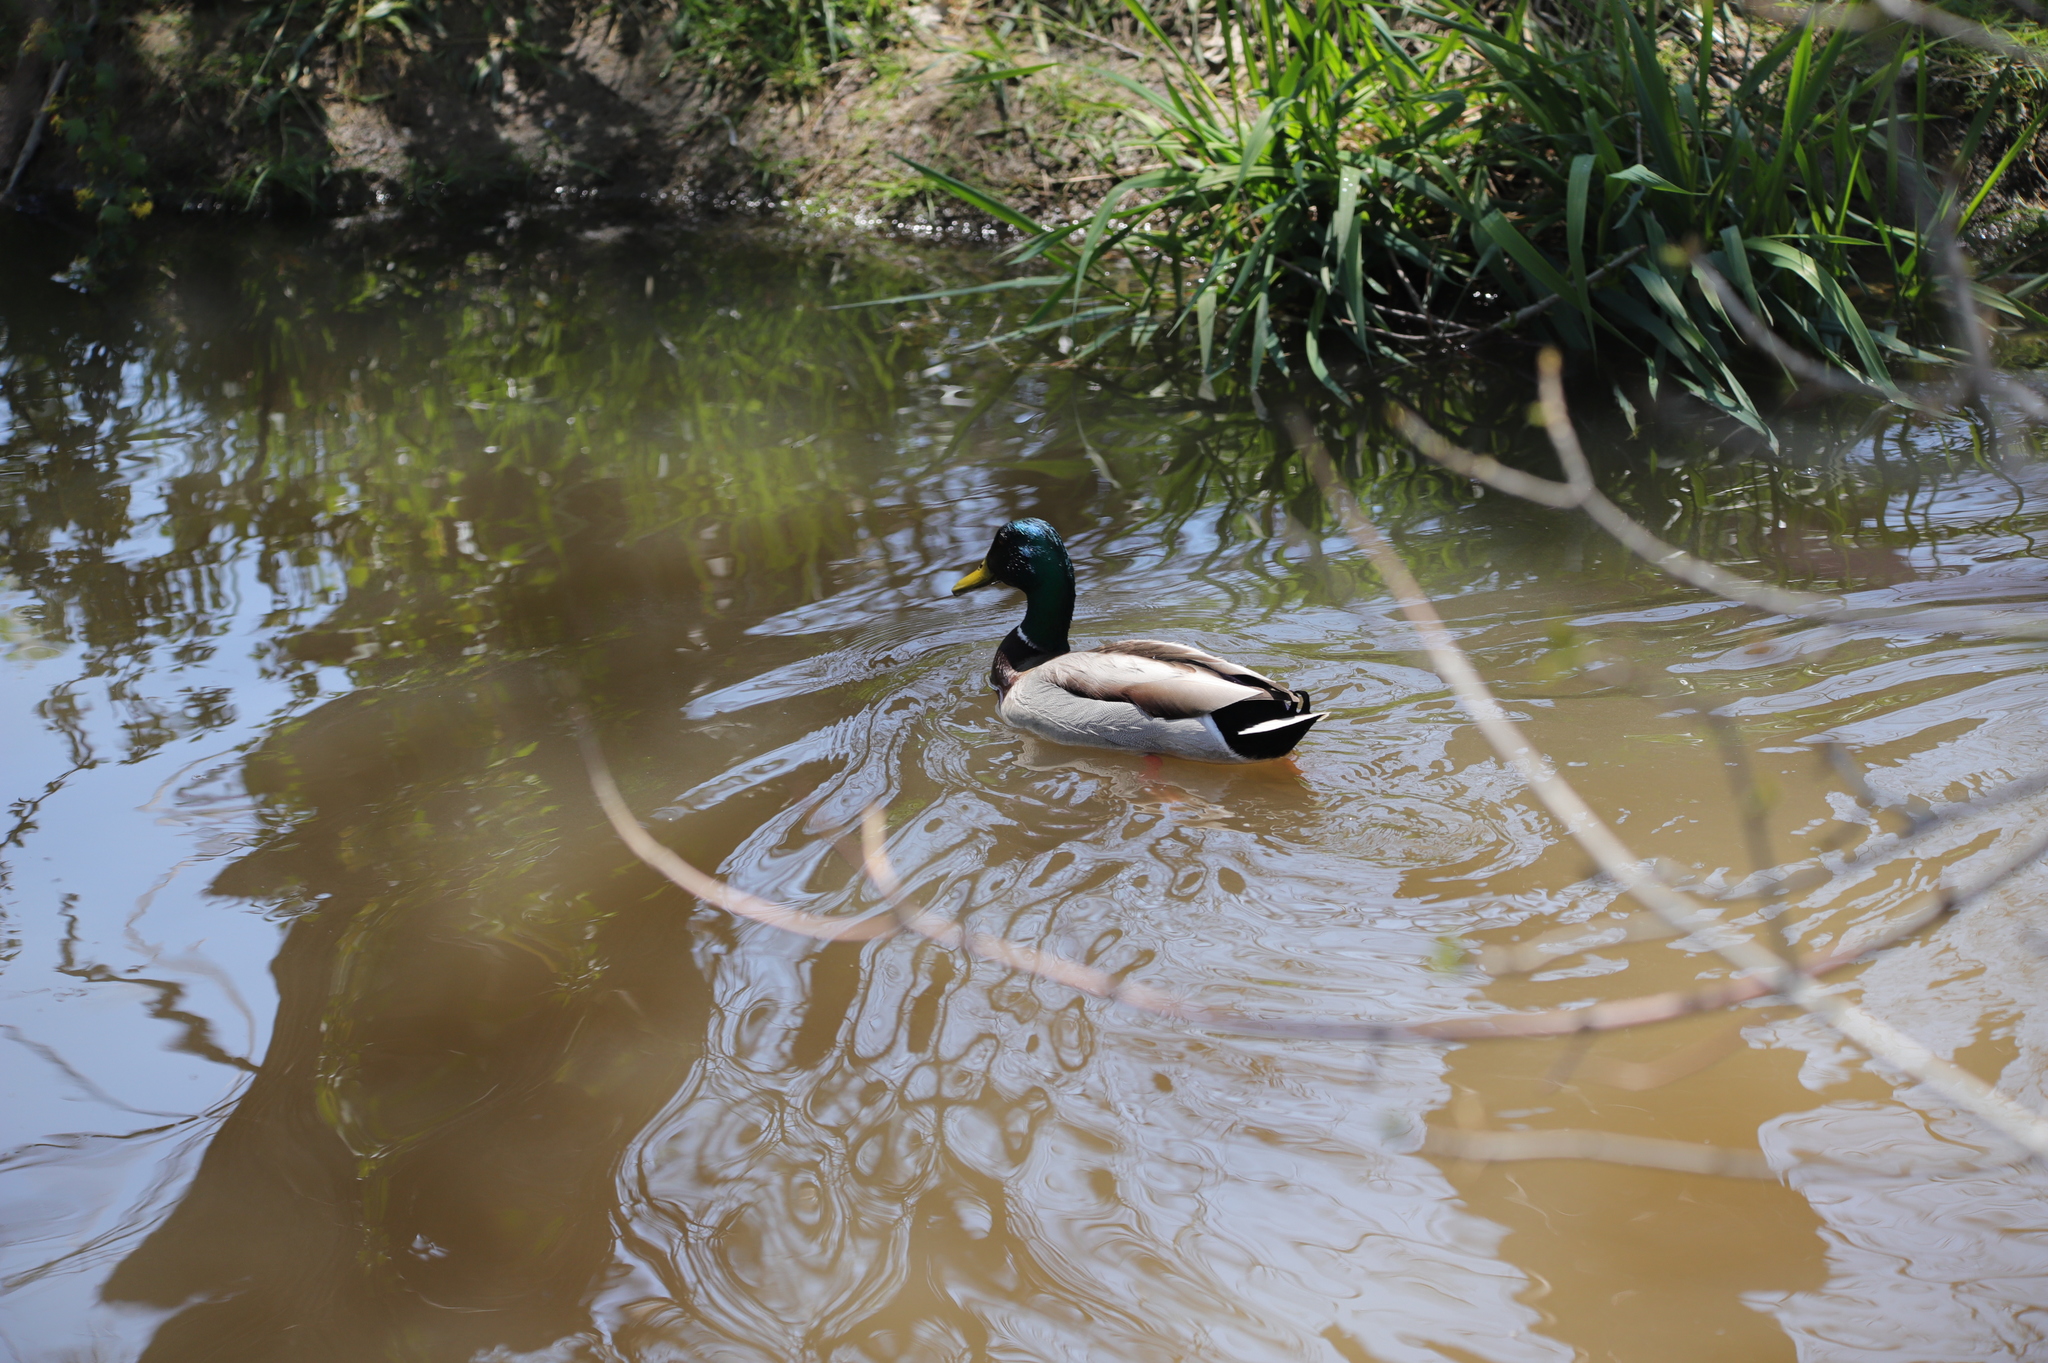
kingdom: Animalia
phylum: Chordata
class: Aves
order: Anseriformes
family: Anatidae
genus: Anas
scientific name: Anas platyrhynchos
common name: Mallard
